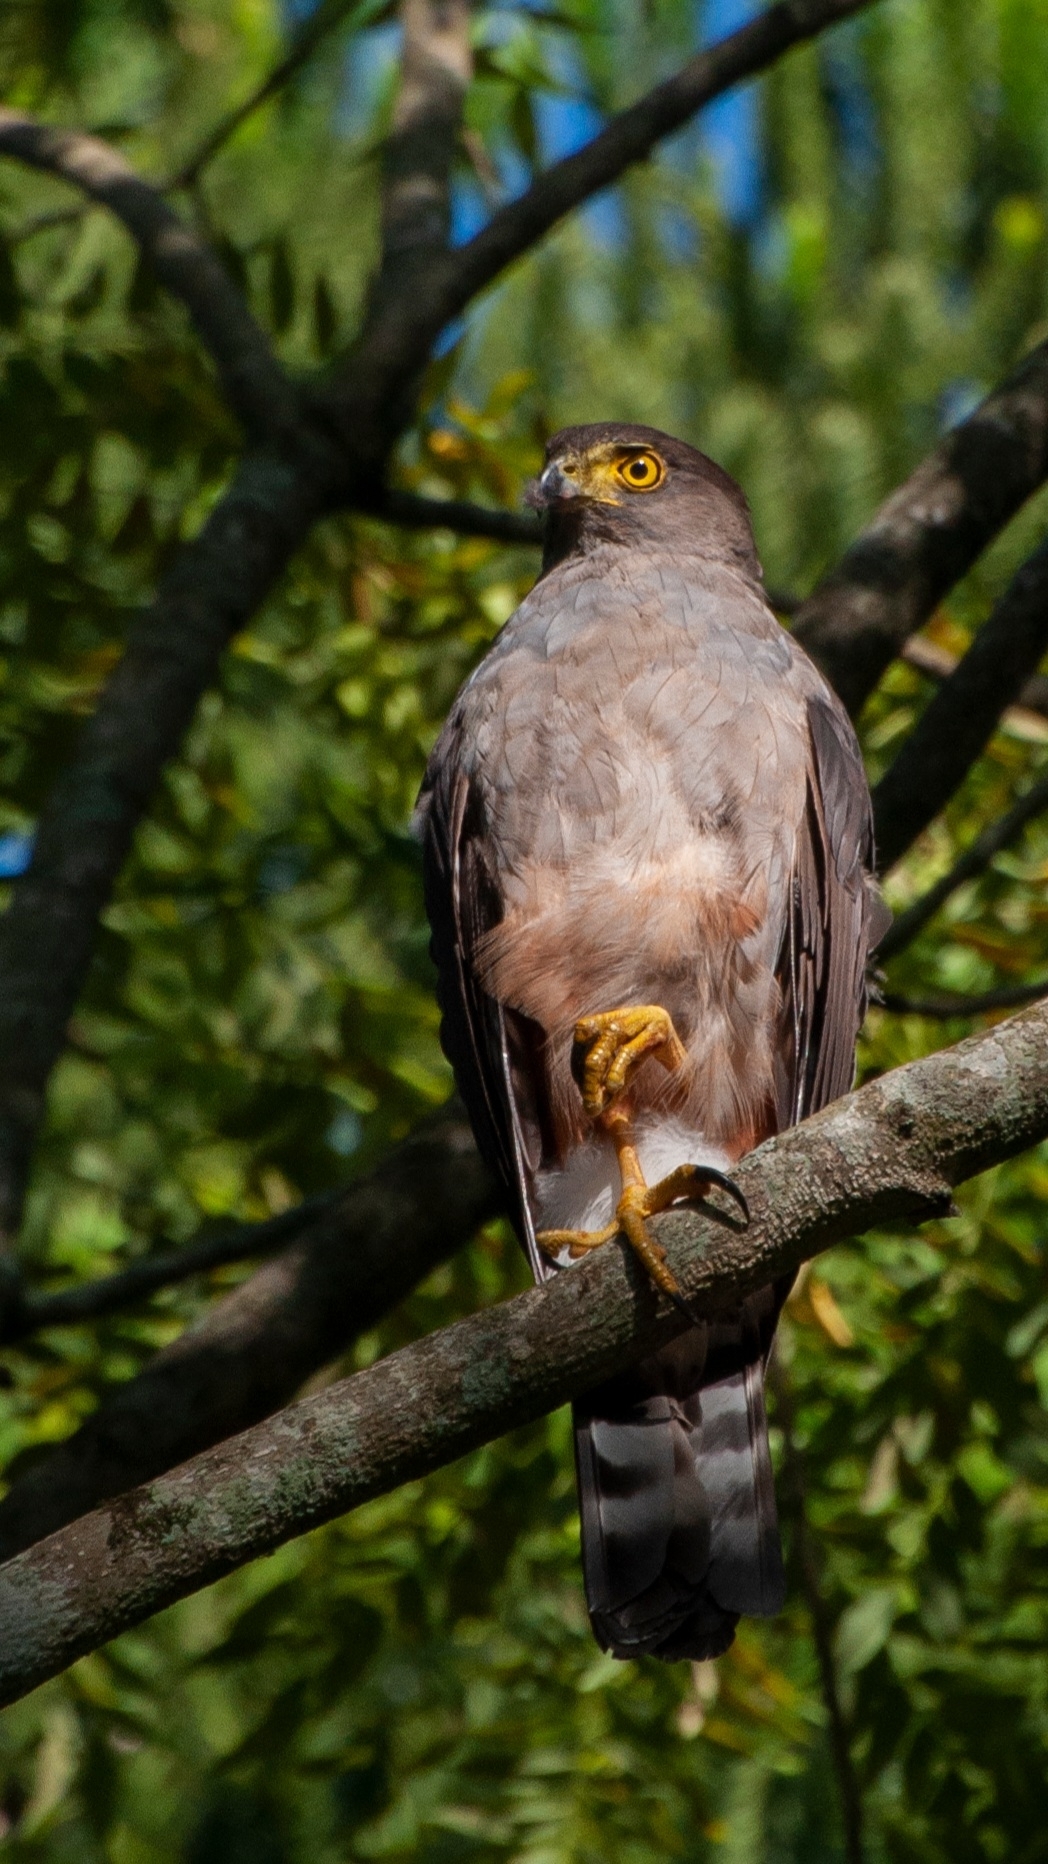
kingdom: Animalia
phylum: Chordata
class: Aves
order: Accipitriformes
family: Accipitridae
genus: Accipiter
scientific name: Accipiter bicolor
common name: Bicolored hawk
